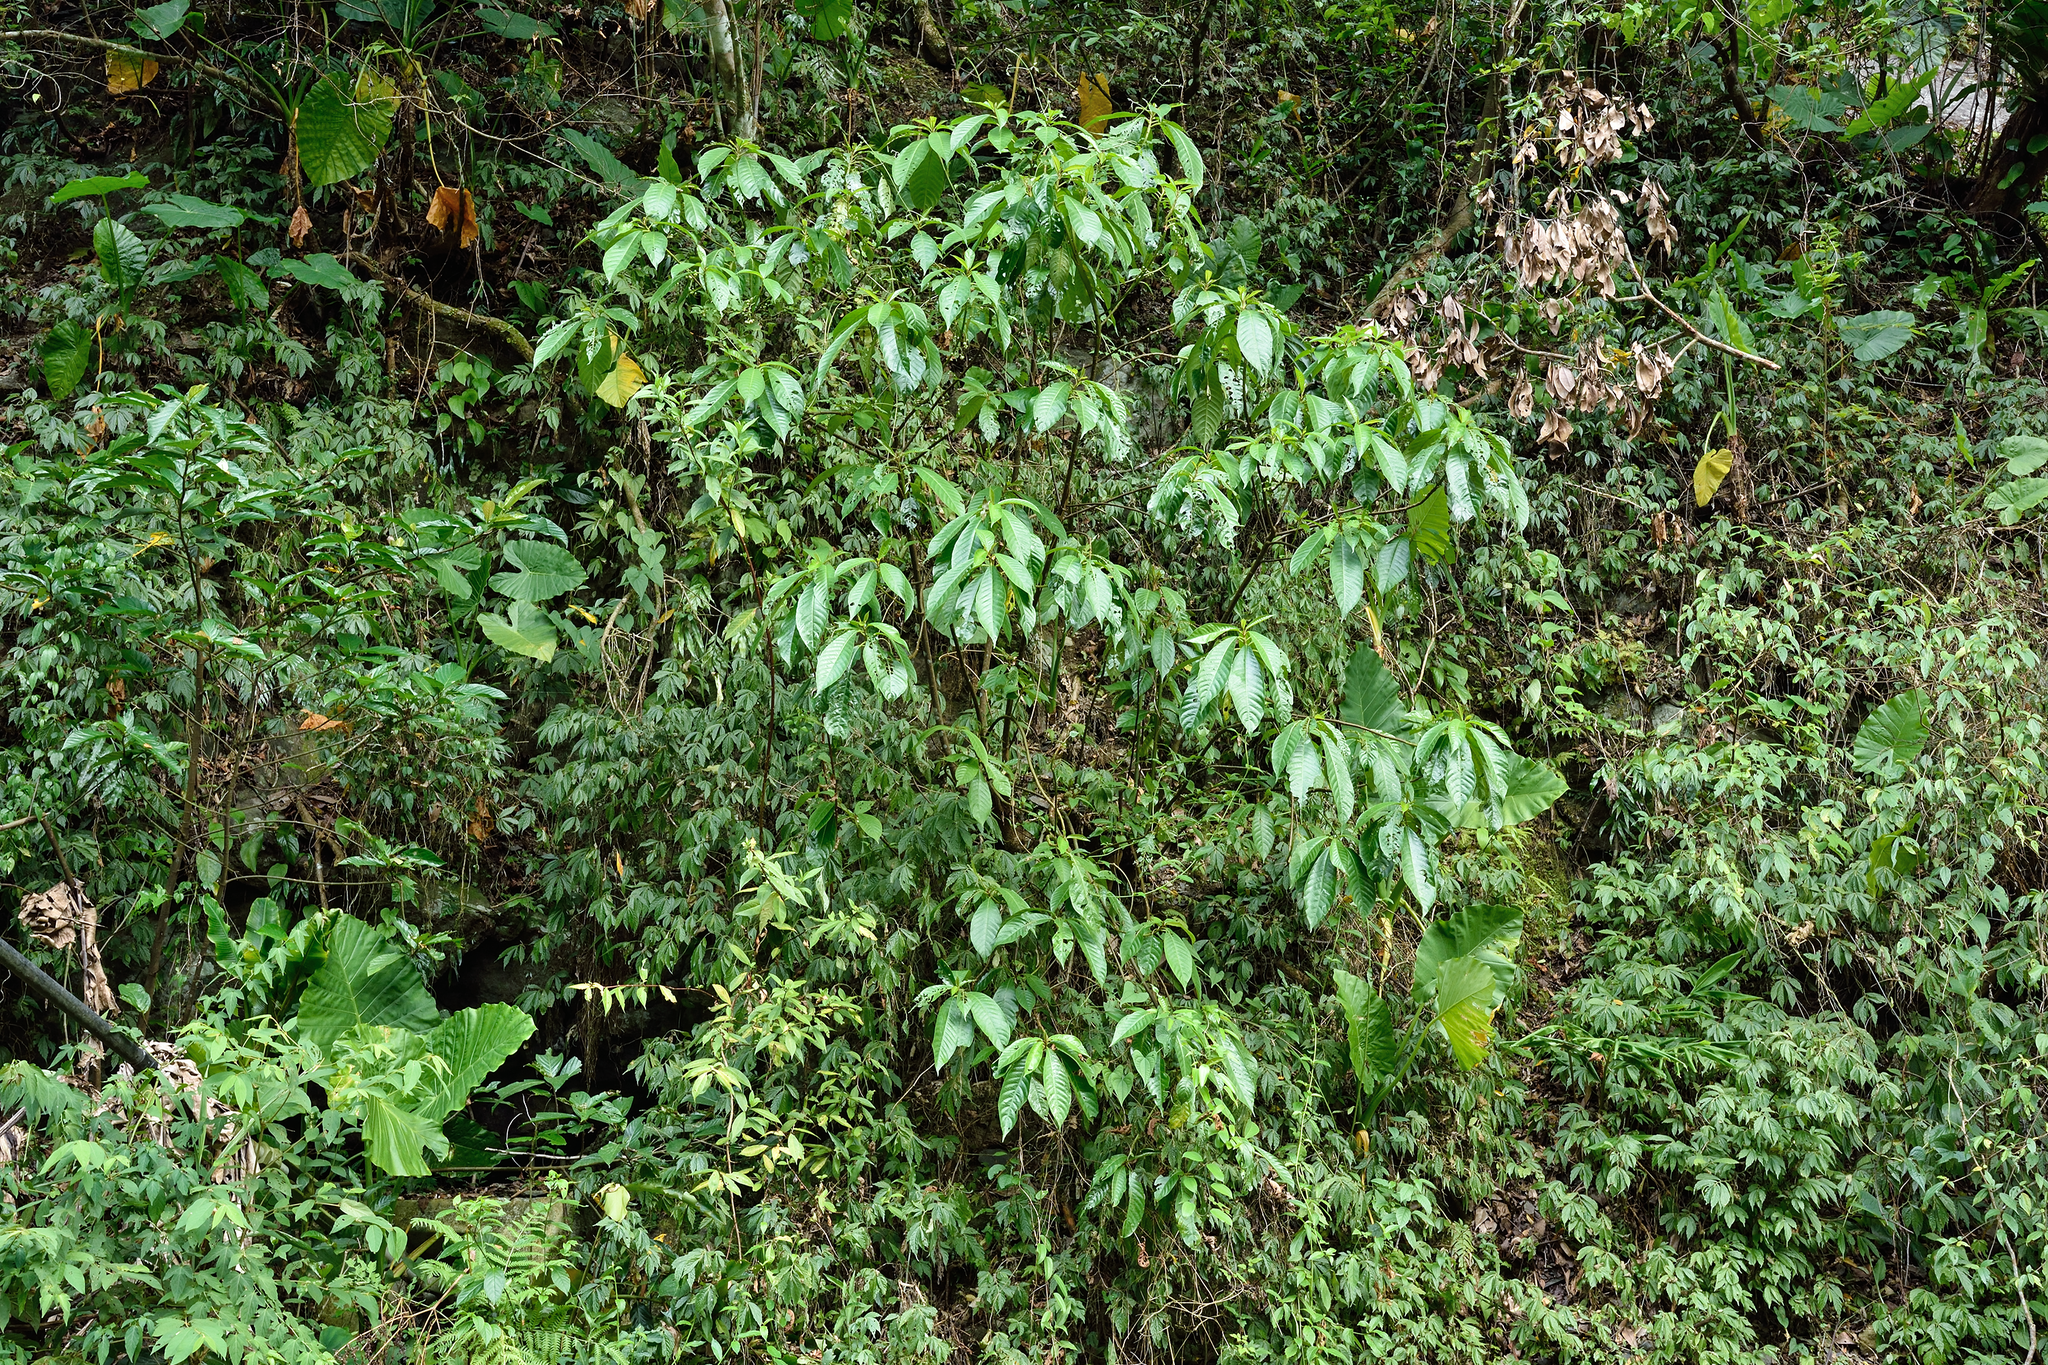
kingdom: Plantae
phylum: Tracheophyta
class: Magnoliopsida
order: Ericales
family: Actinidiaceae
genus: Saurauia
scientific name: Saurauia tristyla
